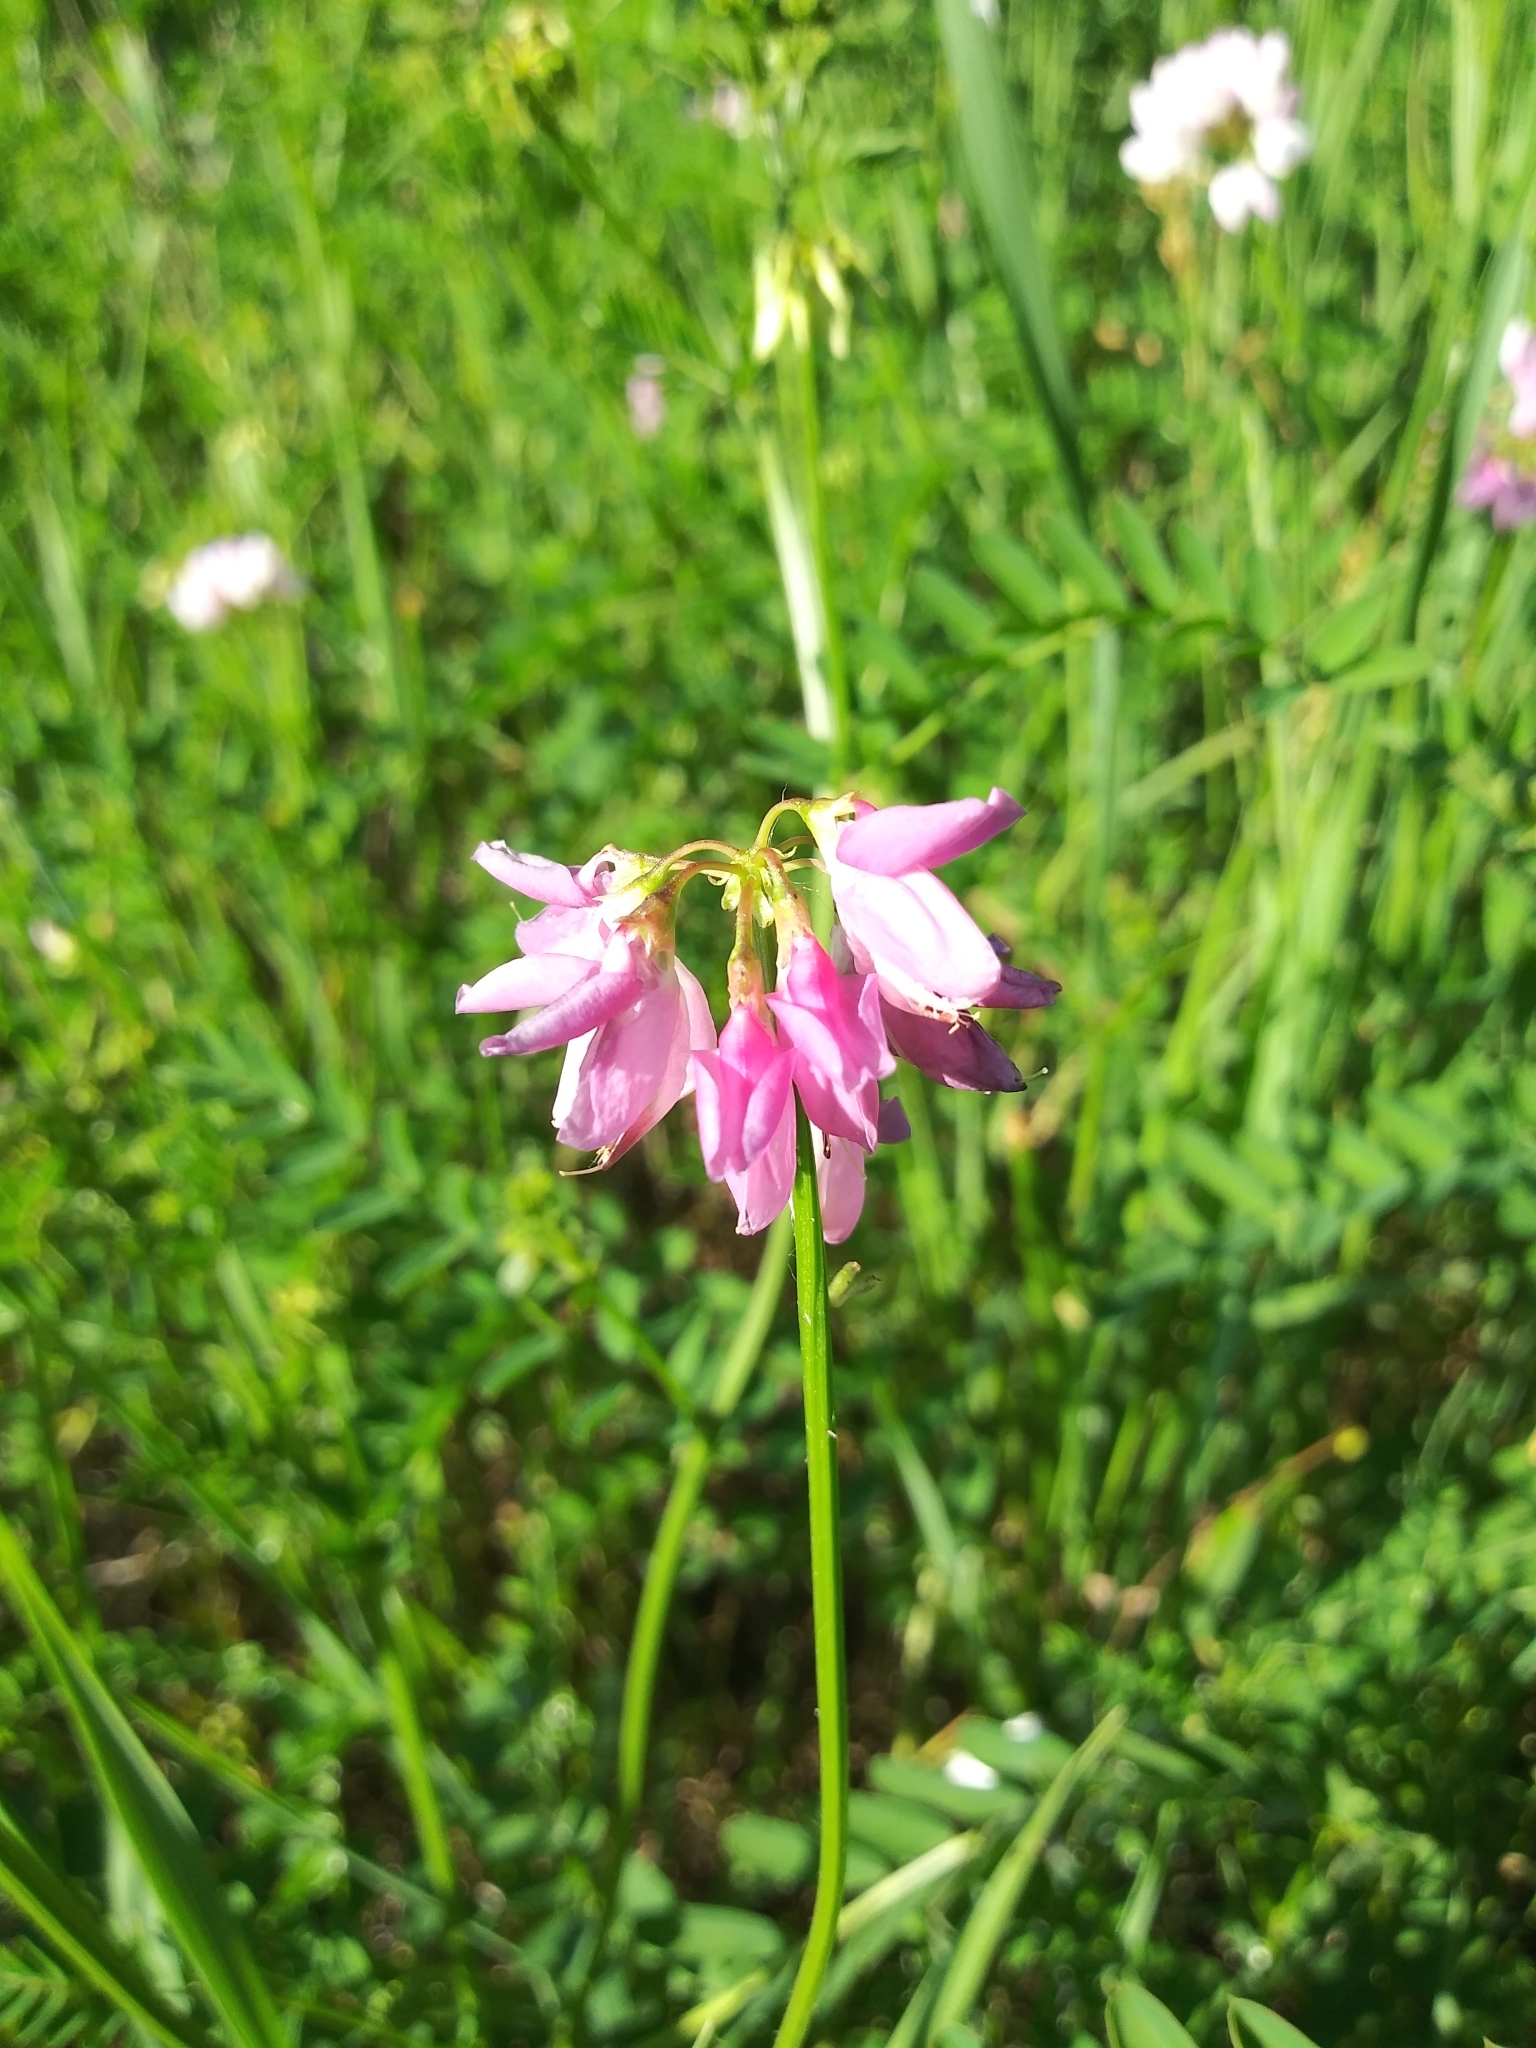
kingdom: Plantae
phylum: Tracheophyta
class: Magnoliopsida
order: Fabales
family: Fabaceae
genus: Coronilla
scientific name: Coronilla varia
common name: Crownvetch
